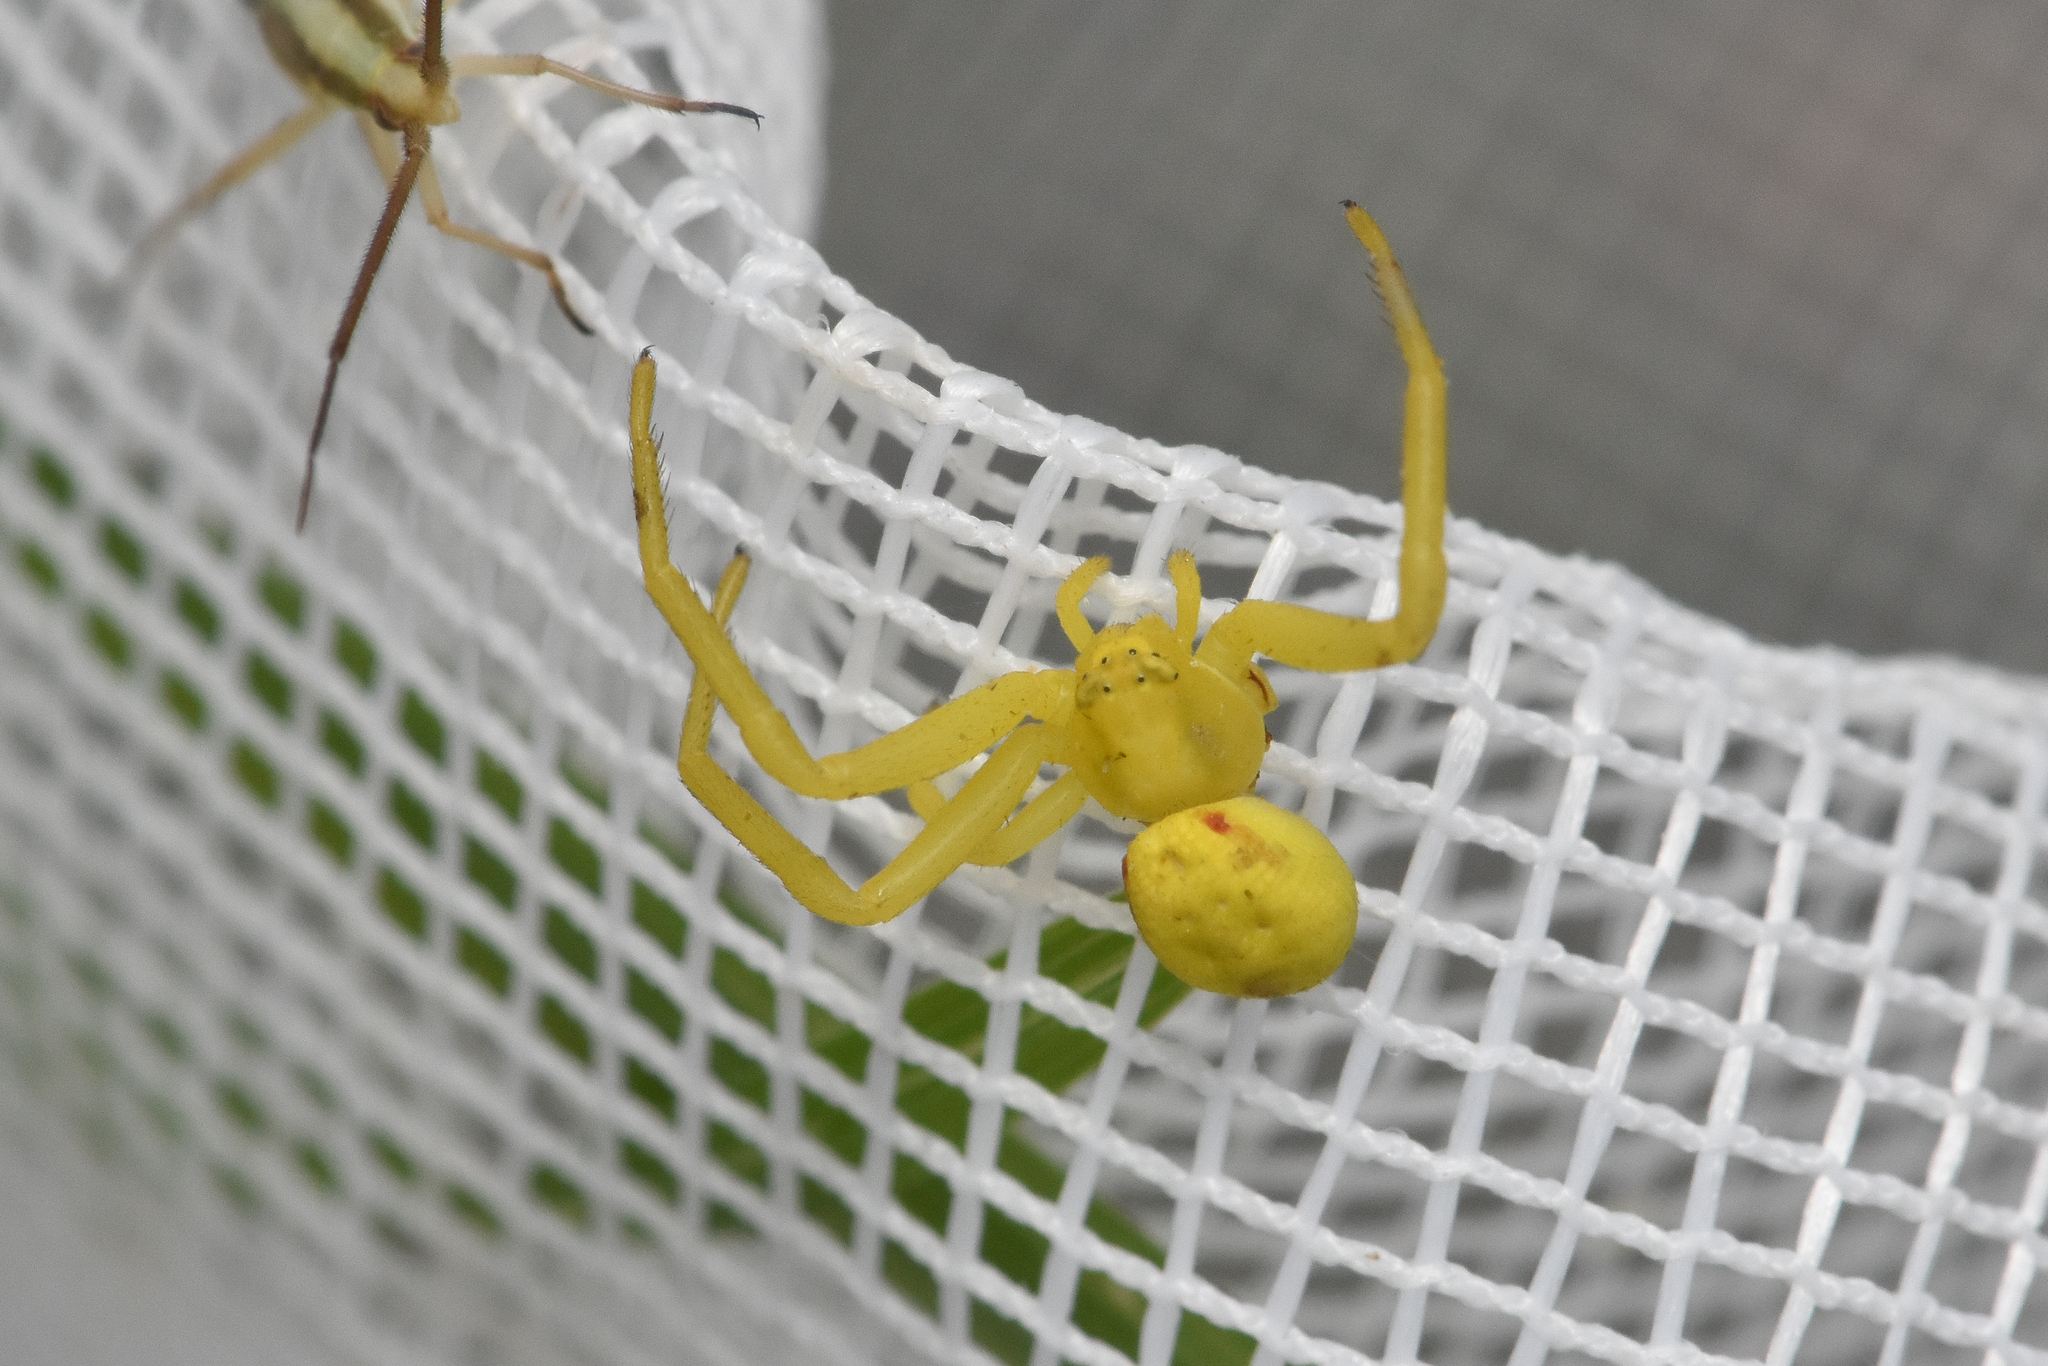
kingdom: Animalia
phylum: Arthropoda
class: Arachnida
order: Araneae
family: Thomisidae
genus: Misumena
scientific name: Misumena vatia
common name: Goldenrod crab spider
